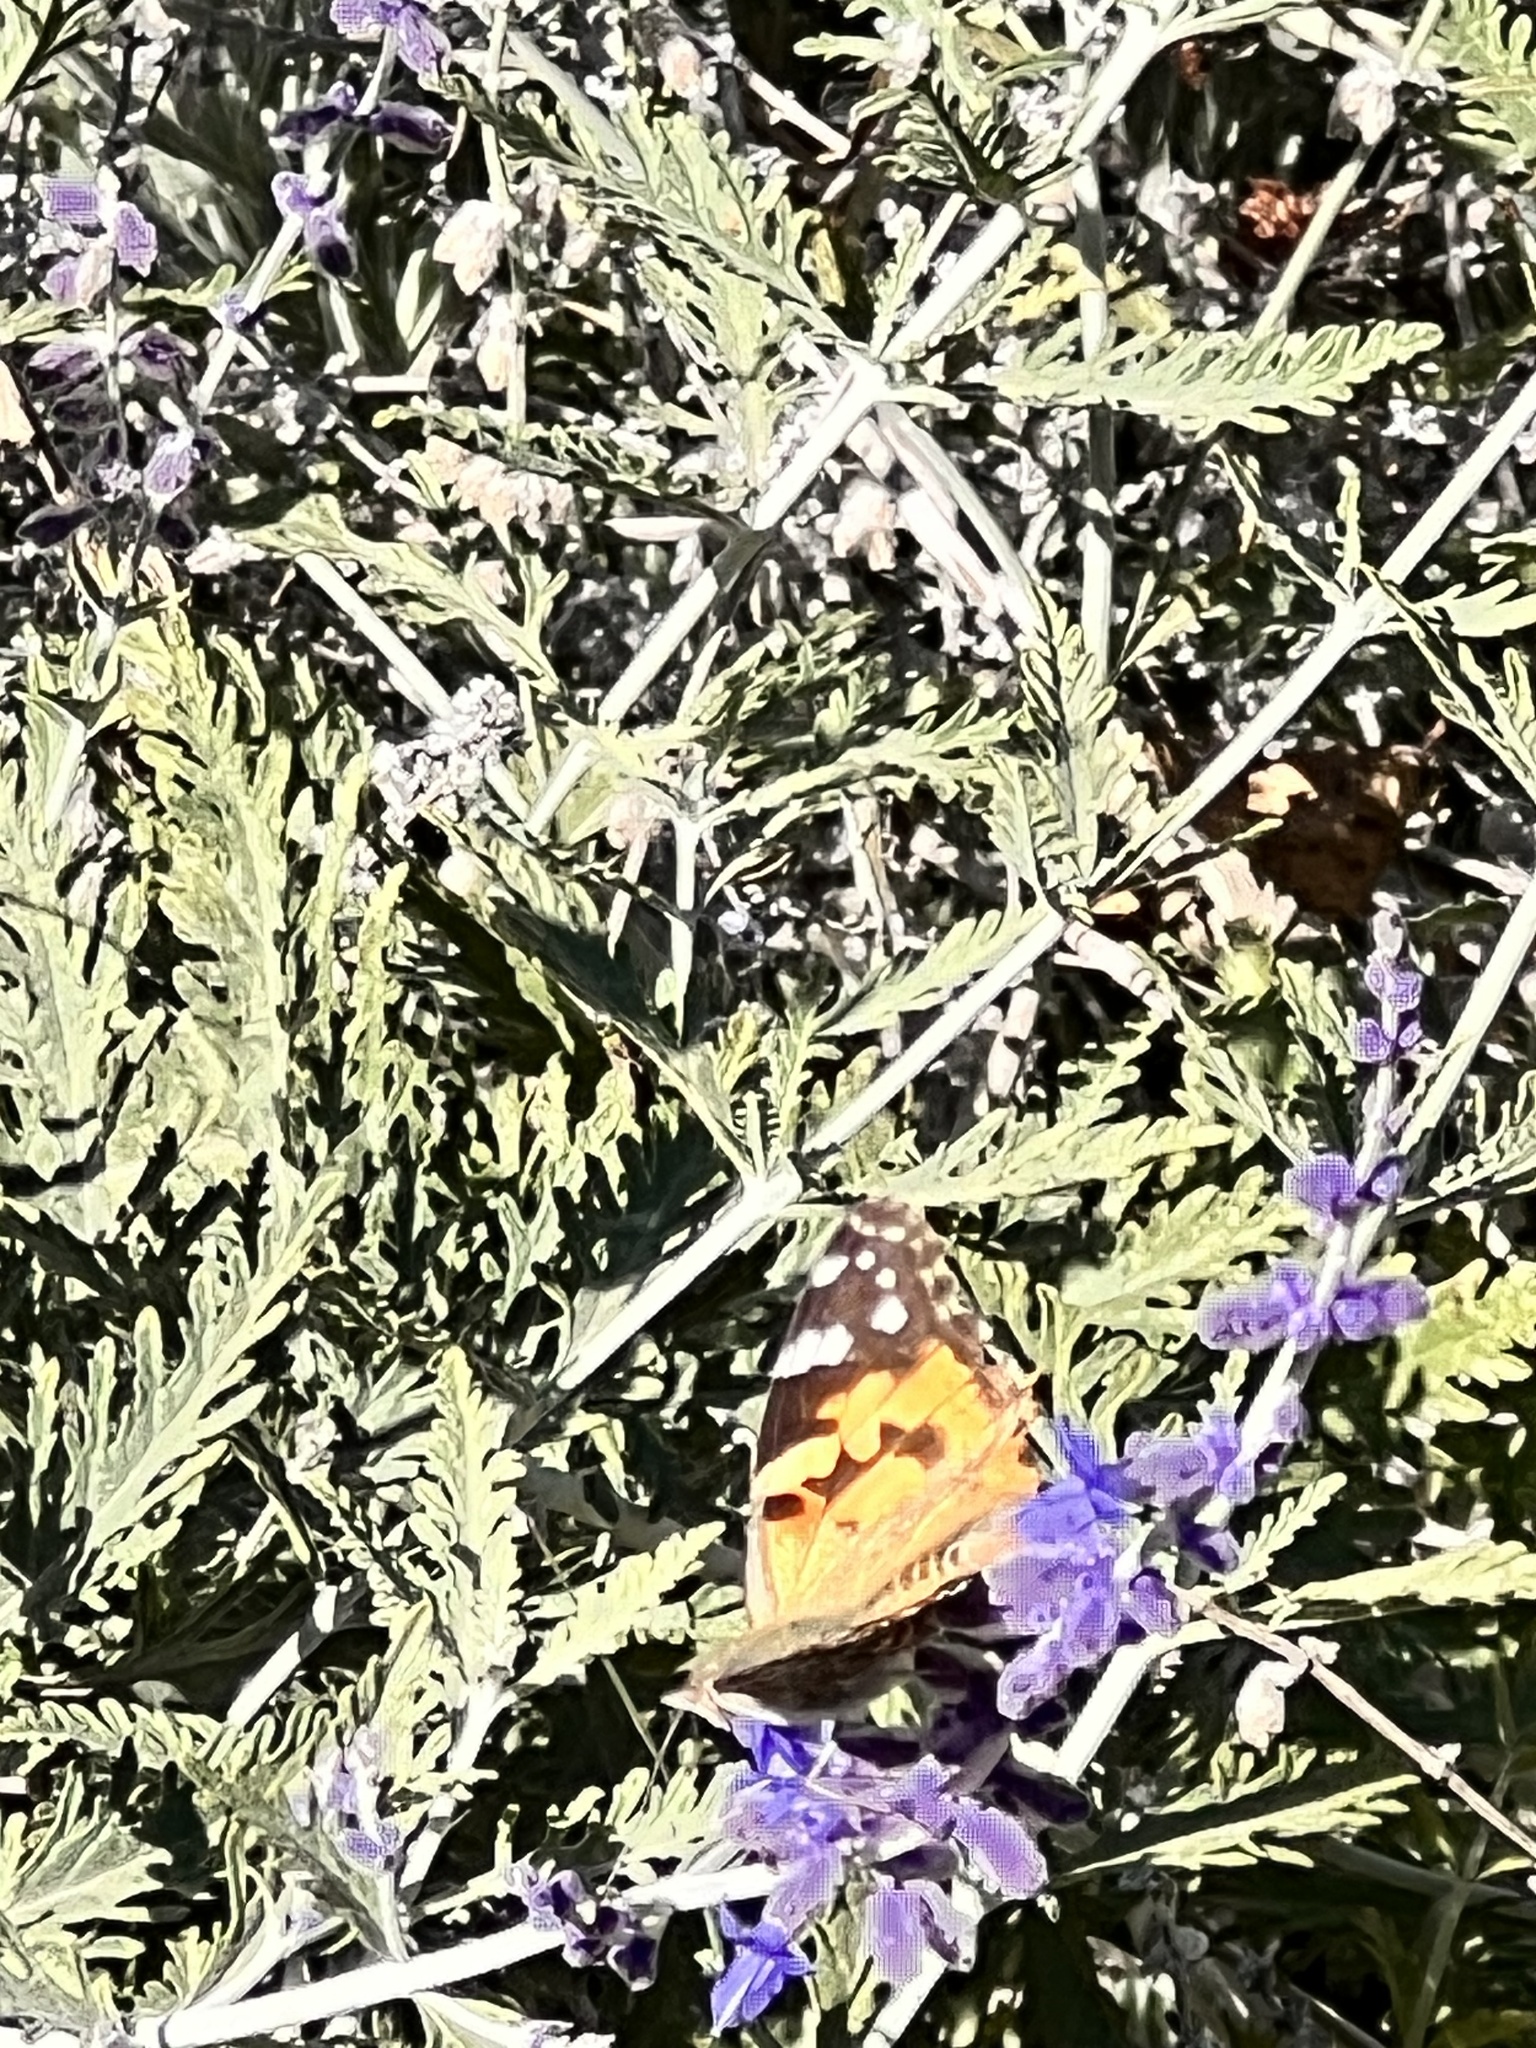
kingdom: Animalia
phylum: Arthropoda
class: Insecta
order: Lepidoptera
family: Nymphalidae
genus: Vanessa
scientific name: Vanessa cardui
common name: Painted lady
